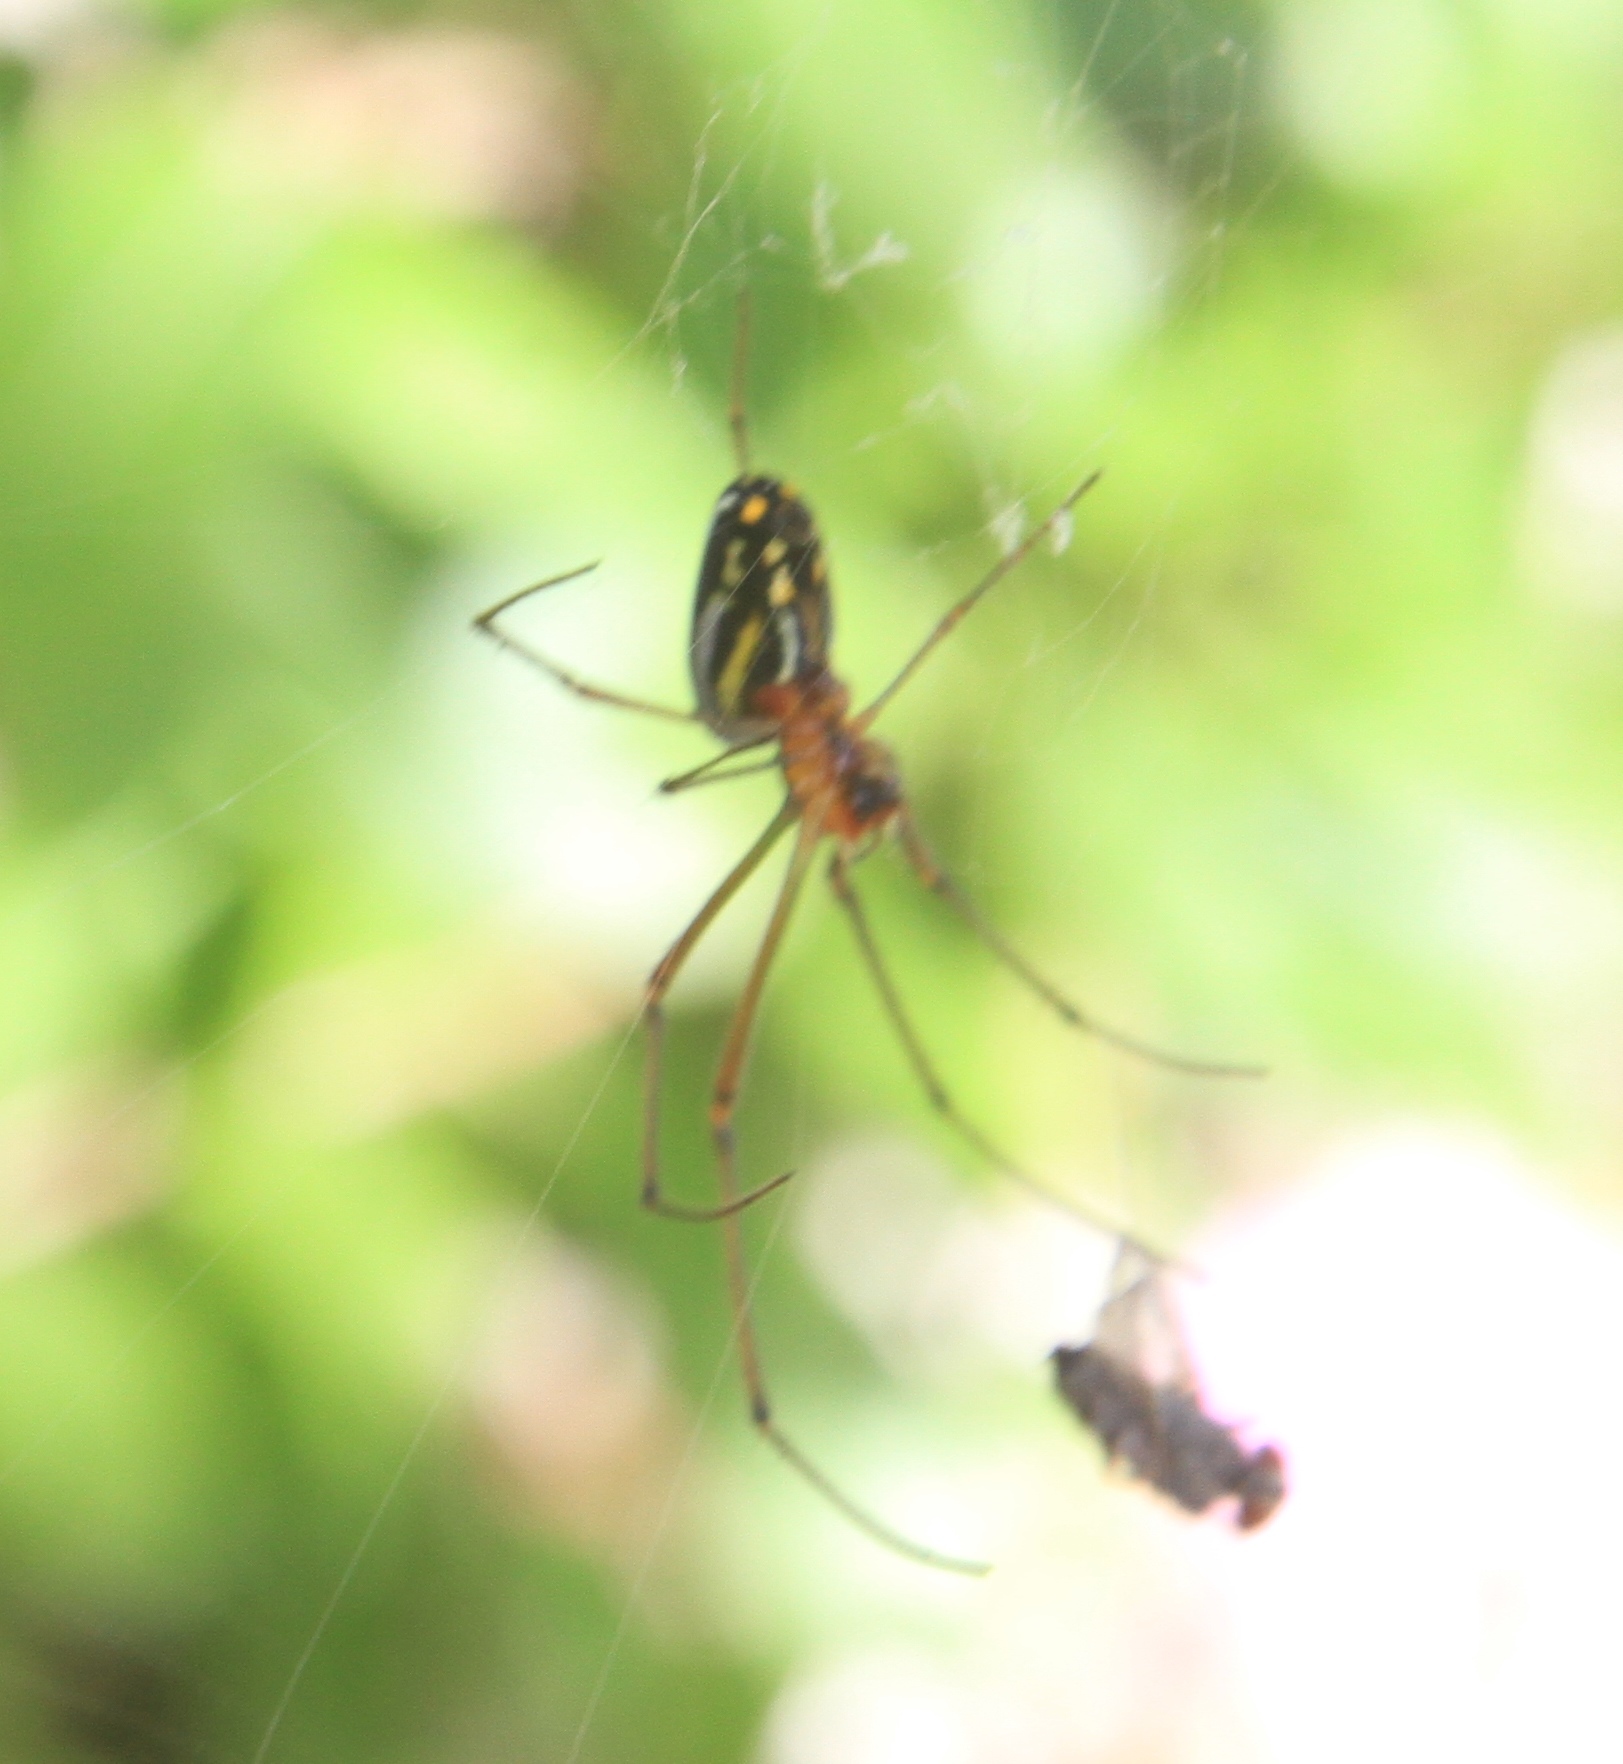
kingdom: Animalia
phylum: Arthropoda
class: Arachnida
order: Araneae
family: Tetragnathidae
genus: Leucauge
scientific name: Leucauge argyra
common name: Longjawed orb weavers
